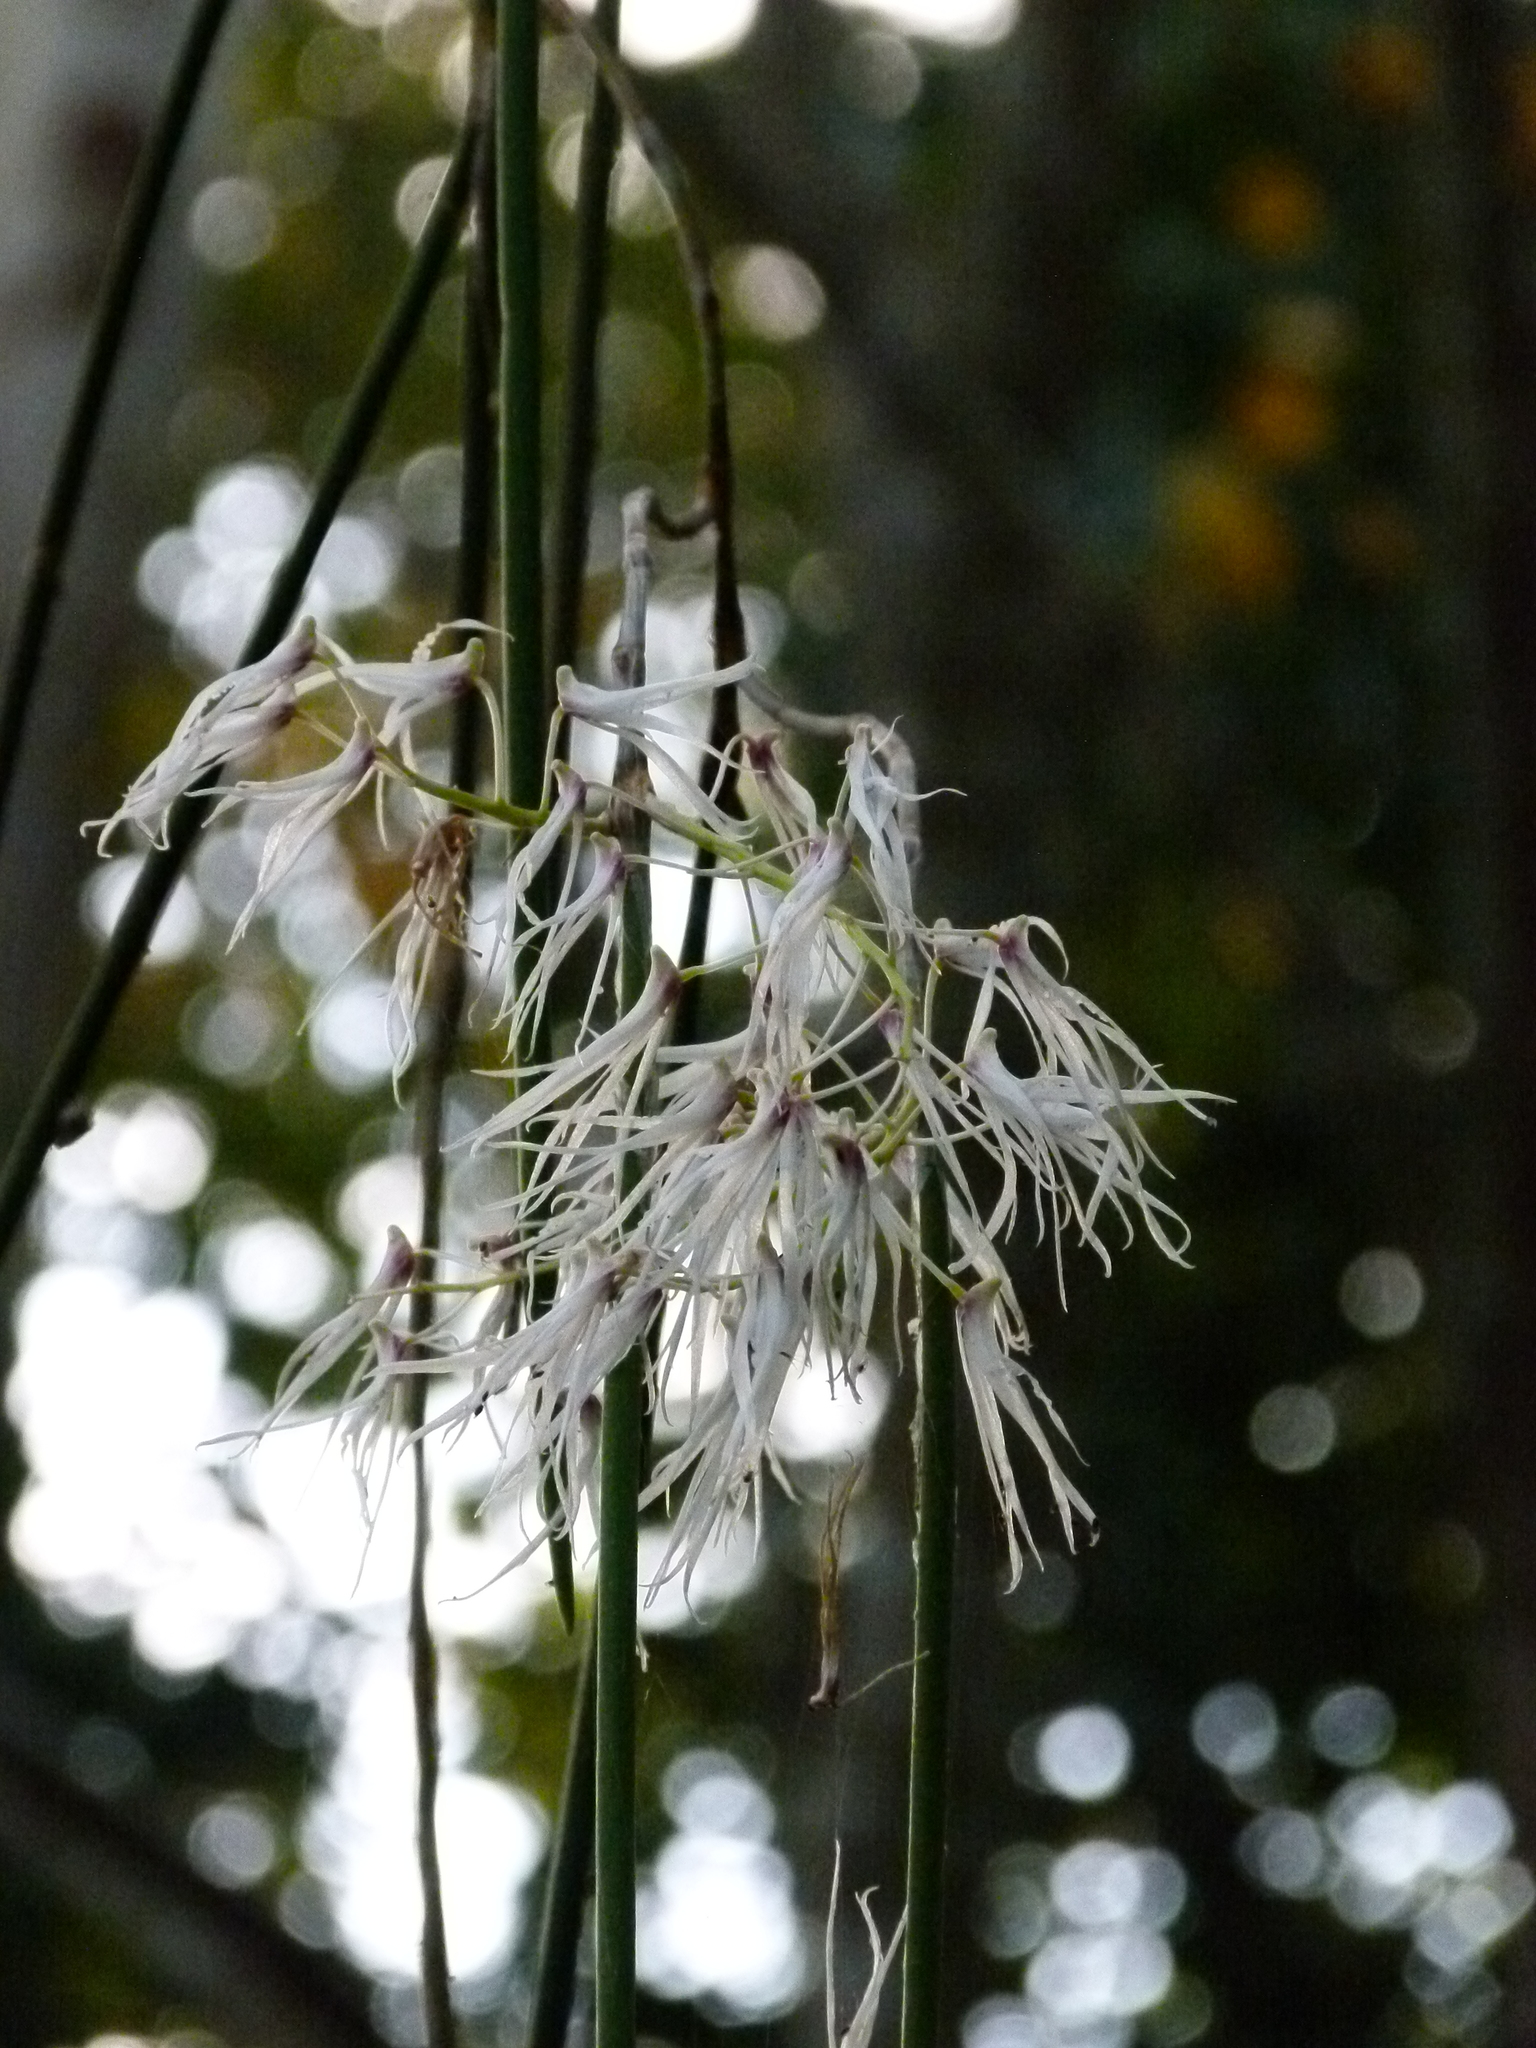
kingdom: Plantae
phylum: Tracheophyta
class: Liliopsida
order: Asparagales
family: Orchidaceae
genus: Dendrobium
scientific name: Dendrobium teretifolium
